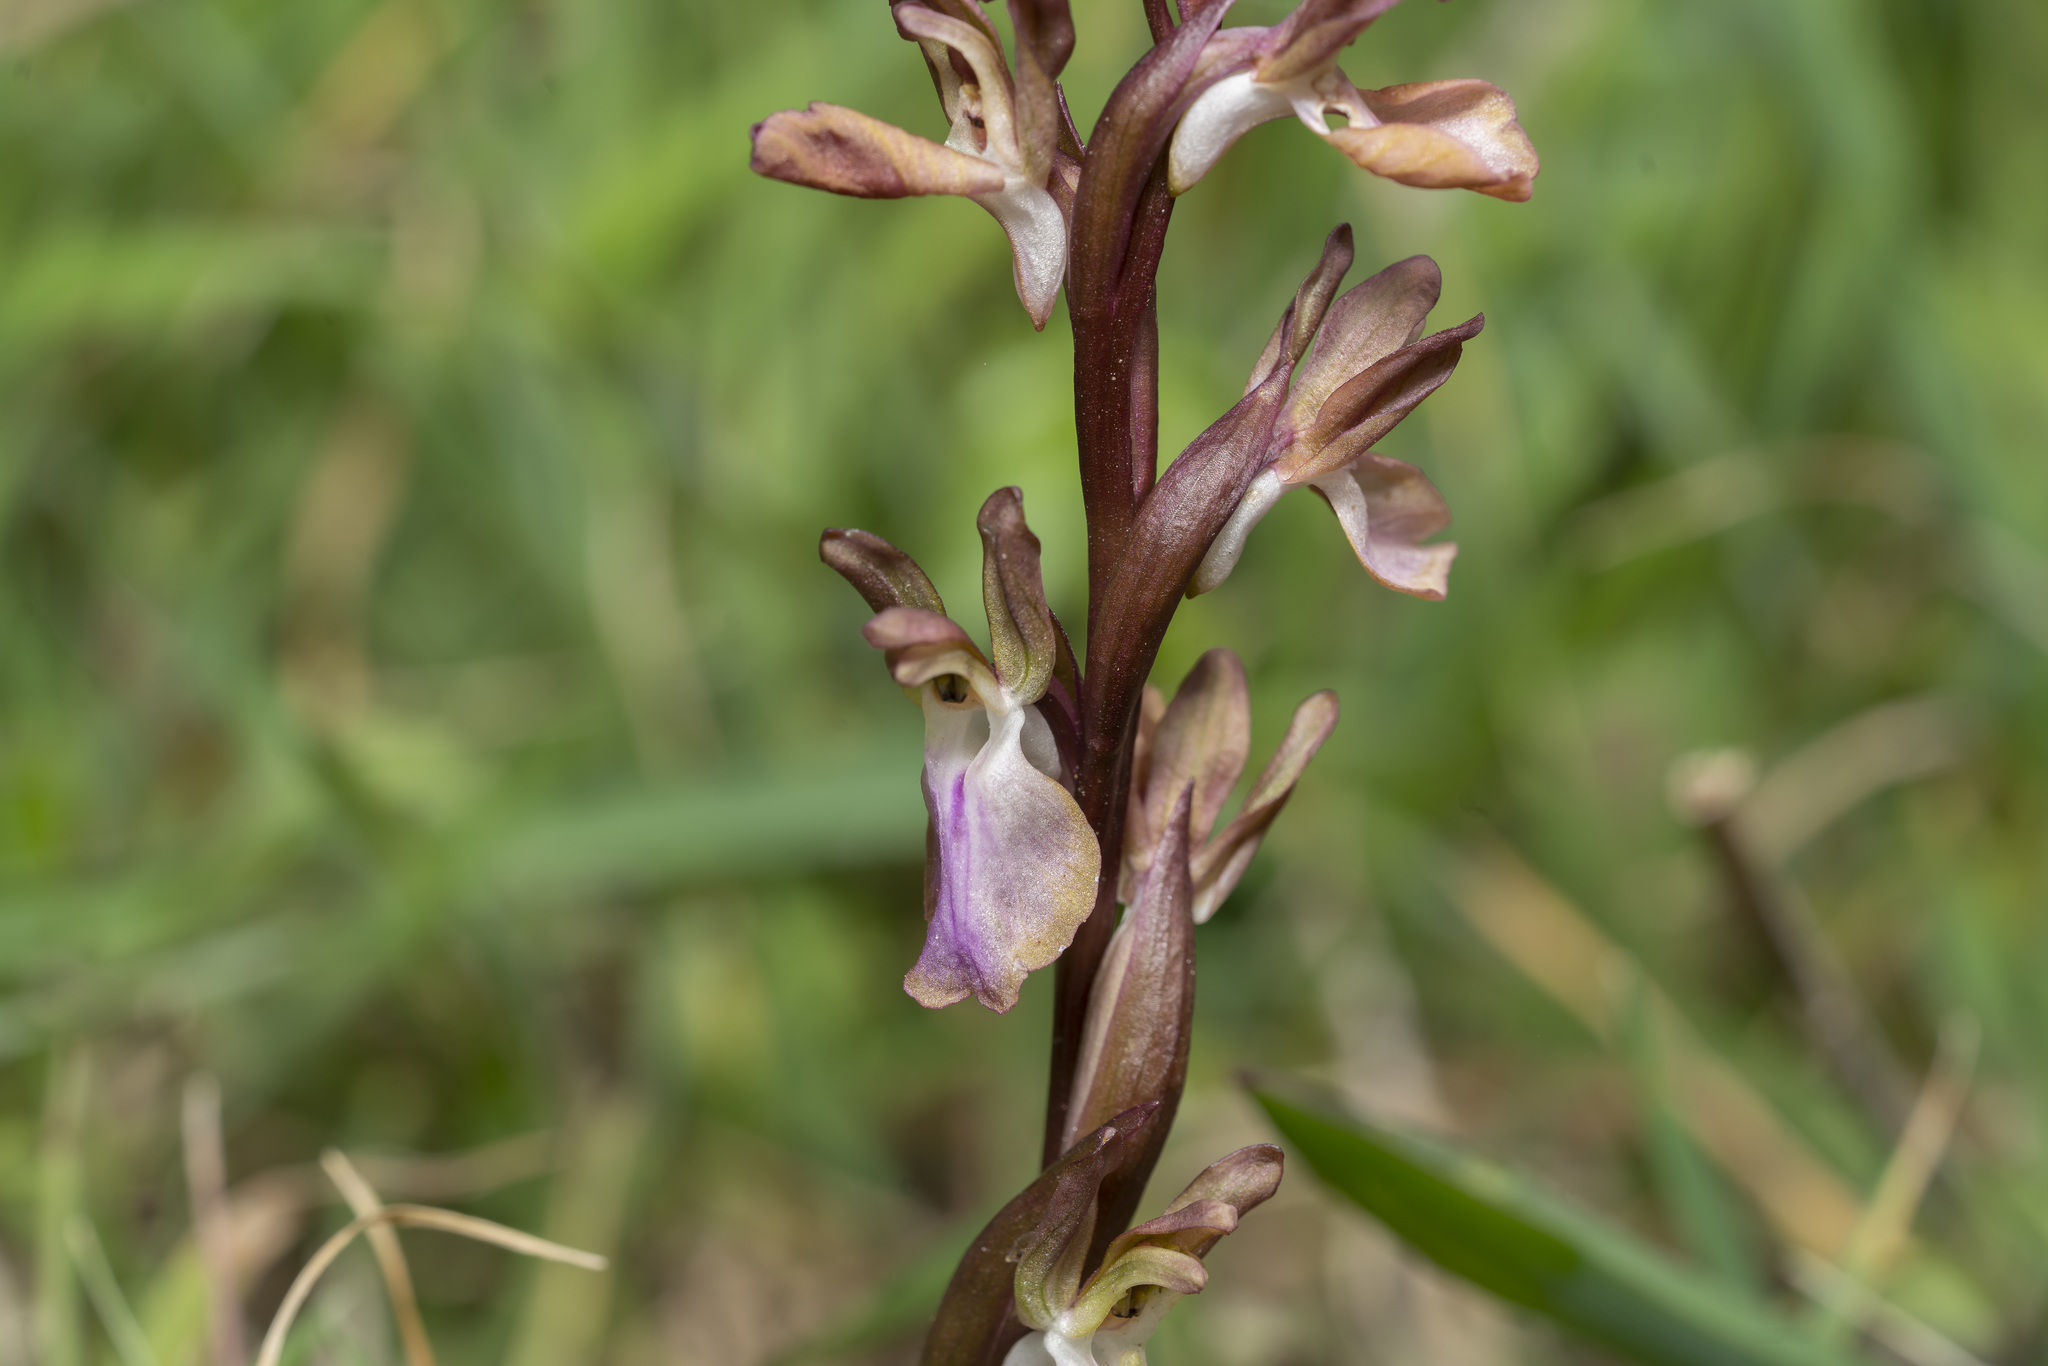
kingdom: Plantae
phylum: Tracheophyta
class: Liliopsida
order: Asparagales
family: Orchidaceae
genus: Anacamptis
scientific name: Anacamptis collina
